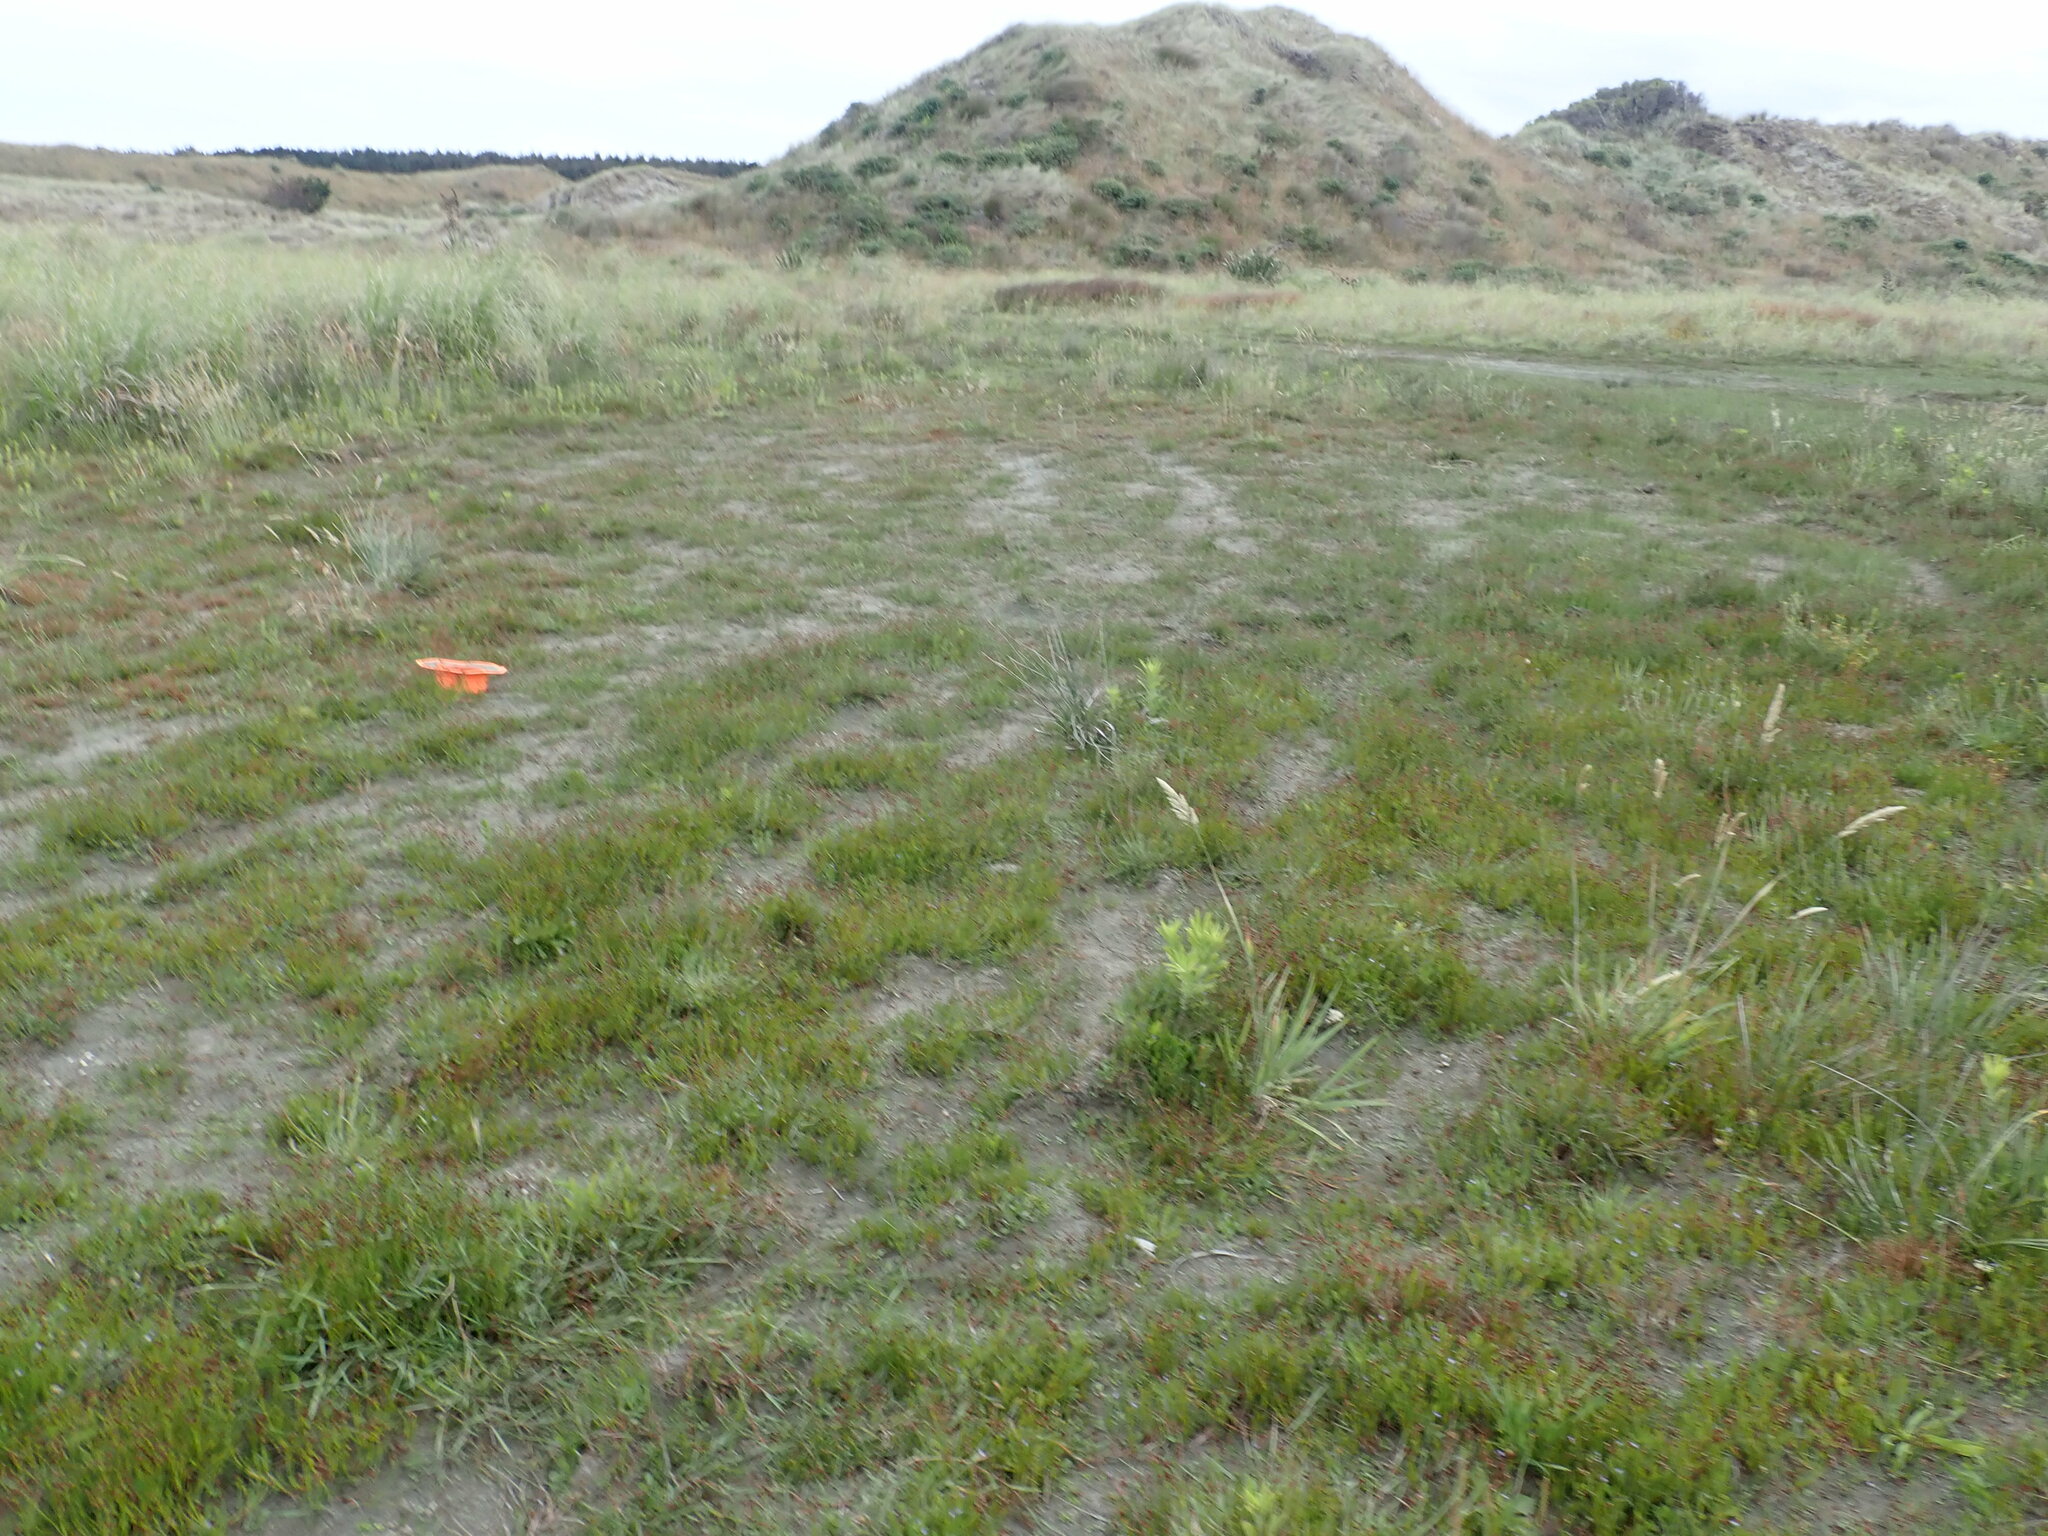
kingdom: Plantae
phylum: Tracheophyta
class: Magnoliopsida
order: Saxifragales
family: Haloragaceae
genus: Myriophyllum
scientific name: Myriophyllum votschii
